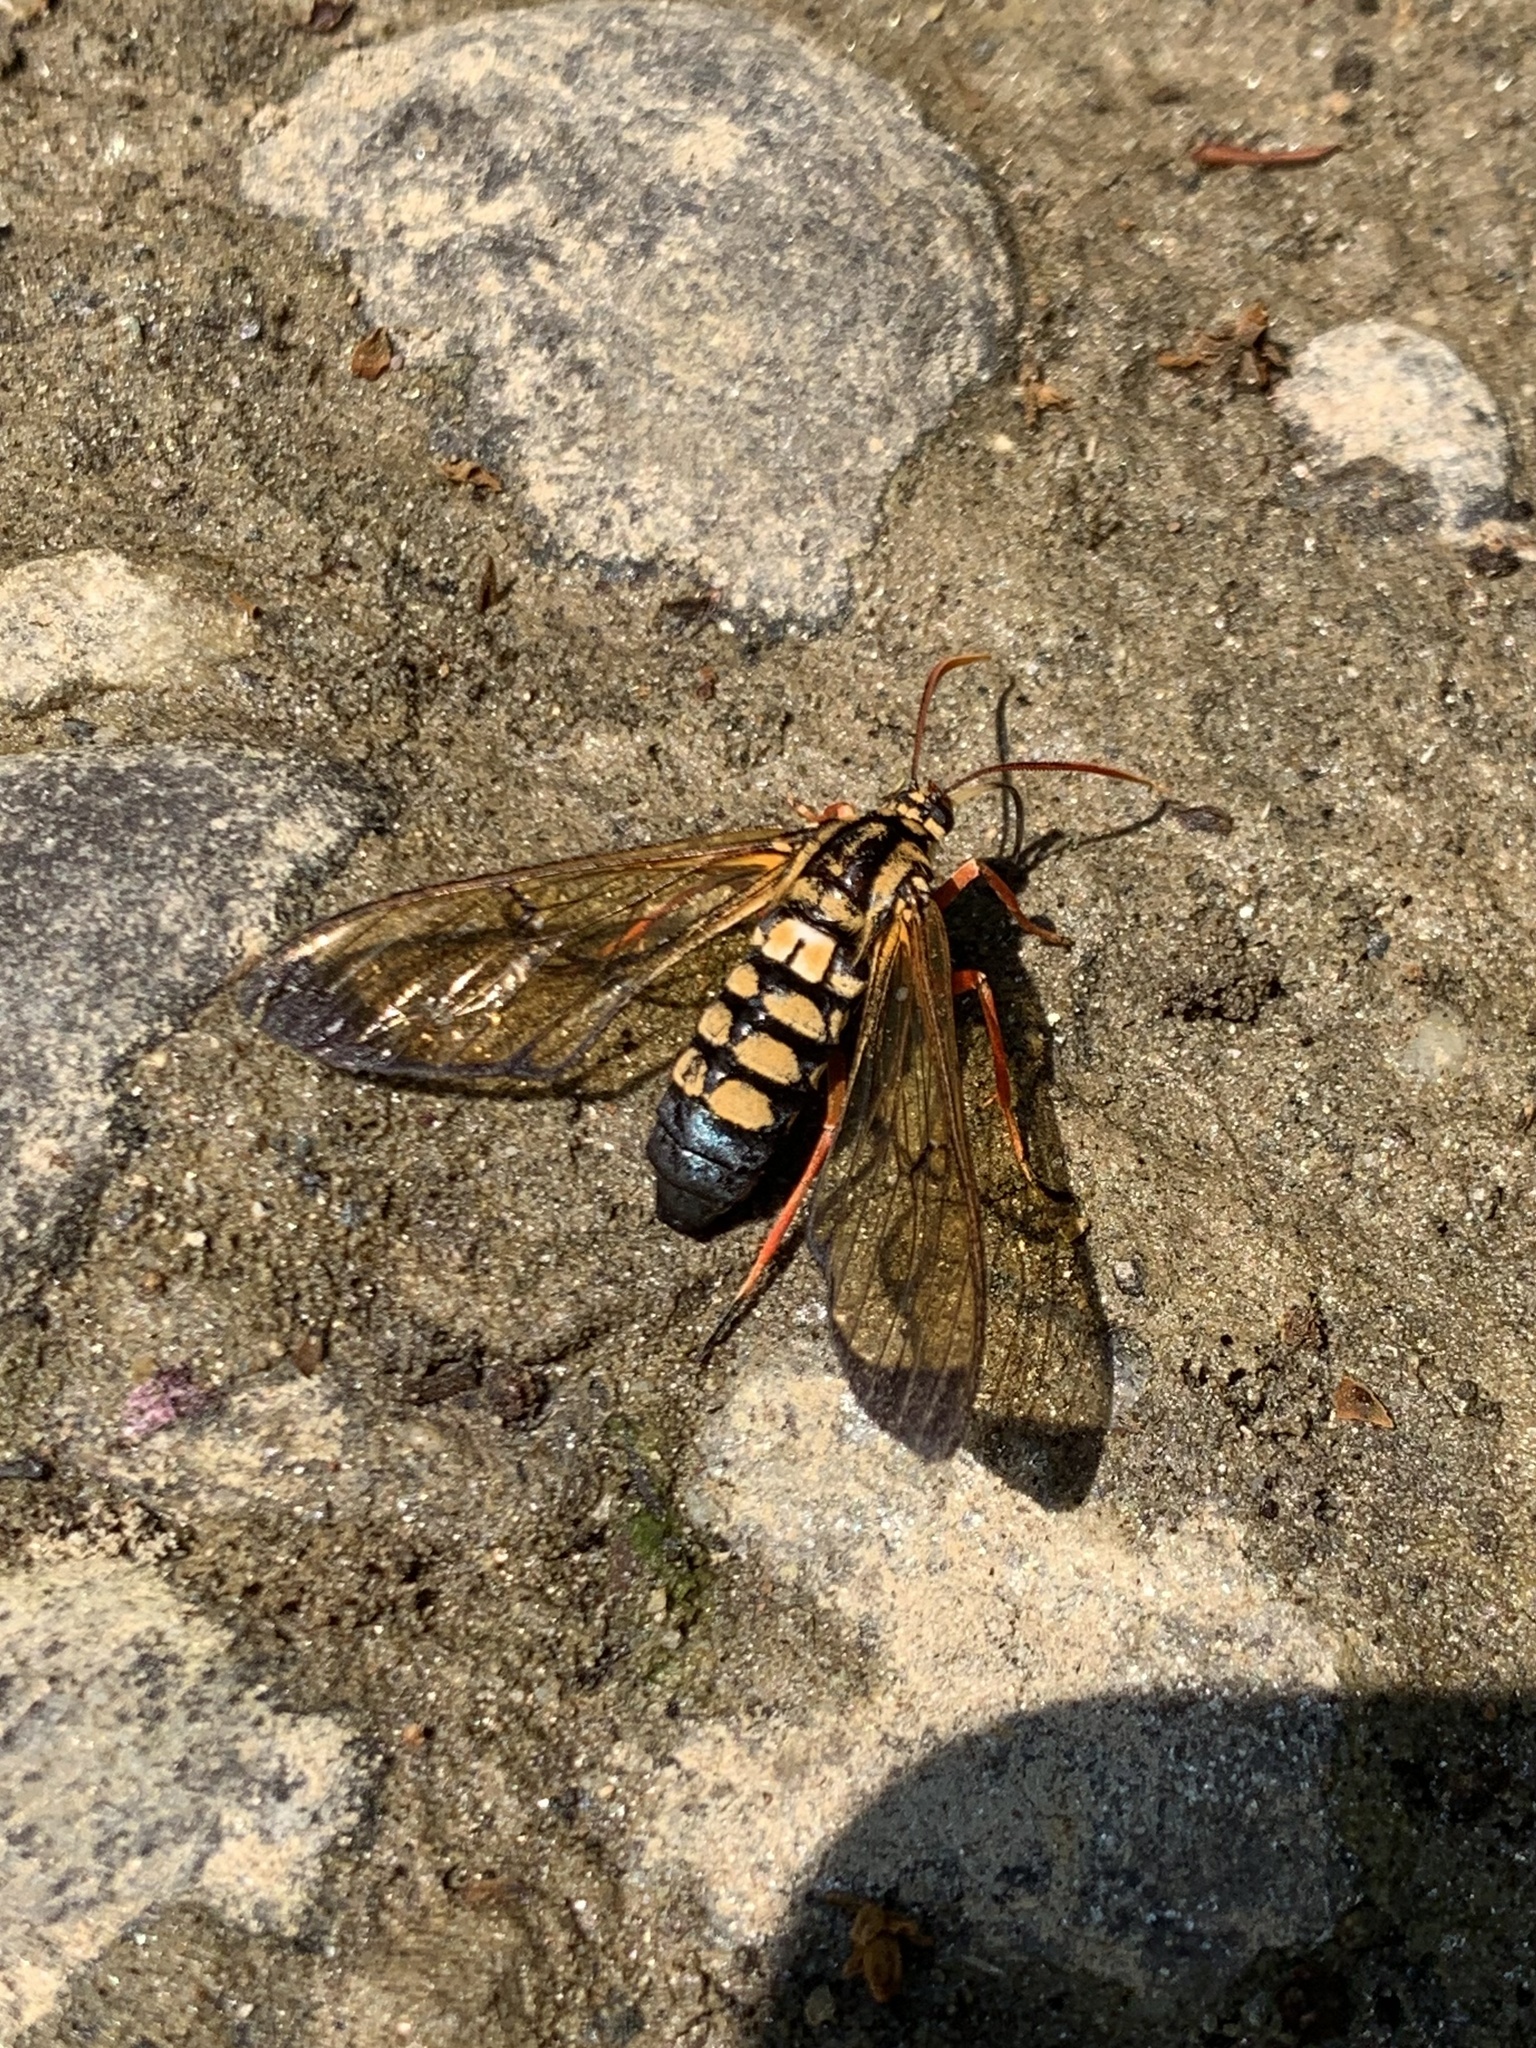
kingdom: Animalia
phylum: Arthropoda
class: Insecta
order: Lepidoptera
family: Erebidae
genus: Isanthrene
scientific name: Isanthrene crabroniformis
